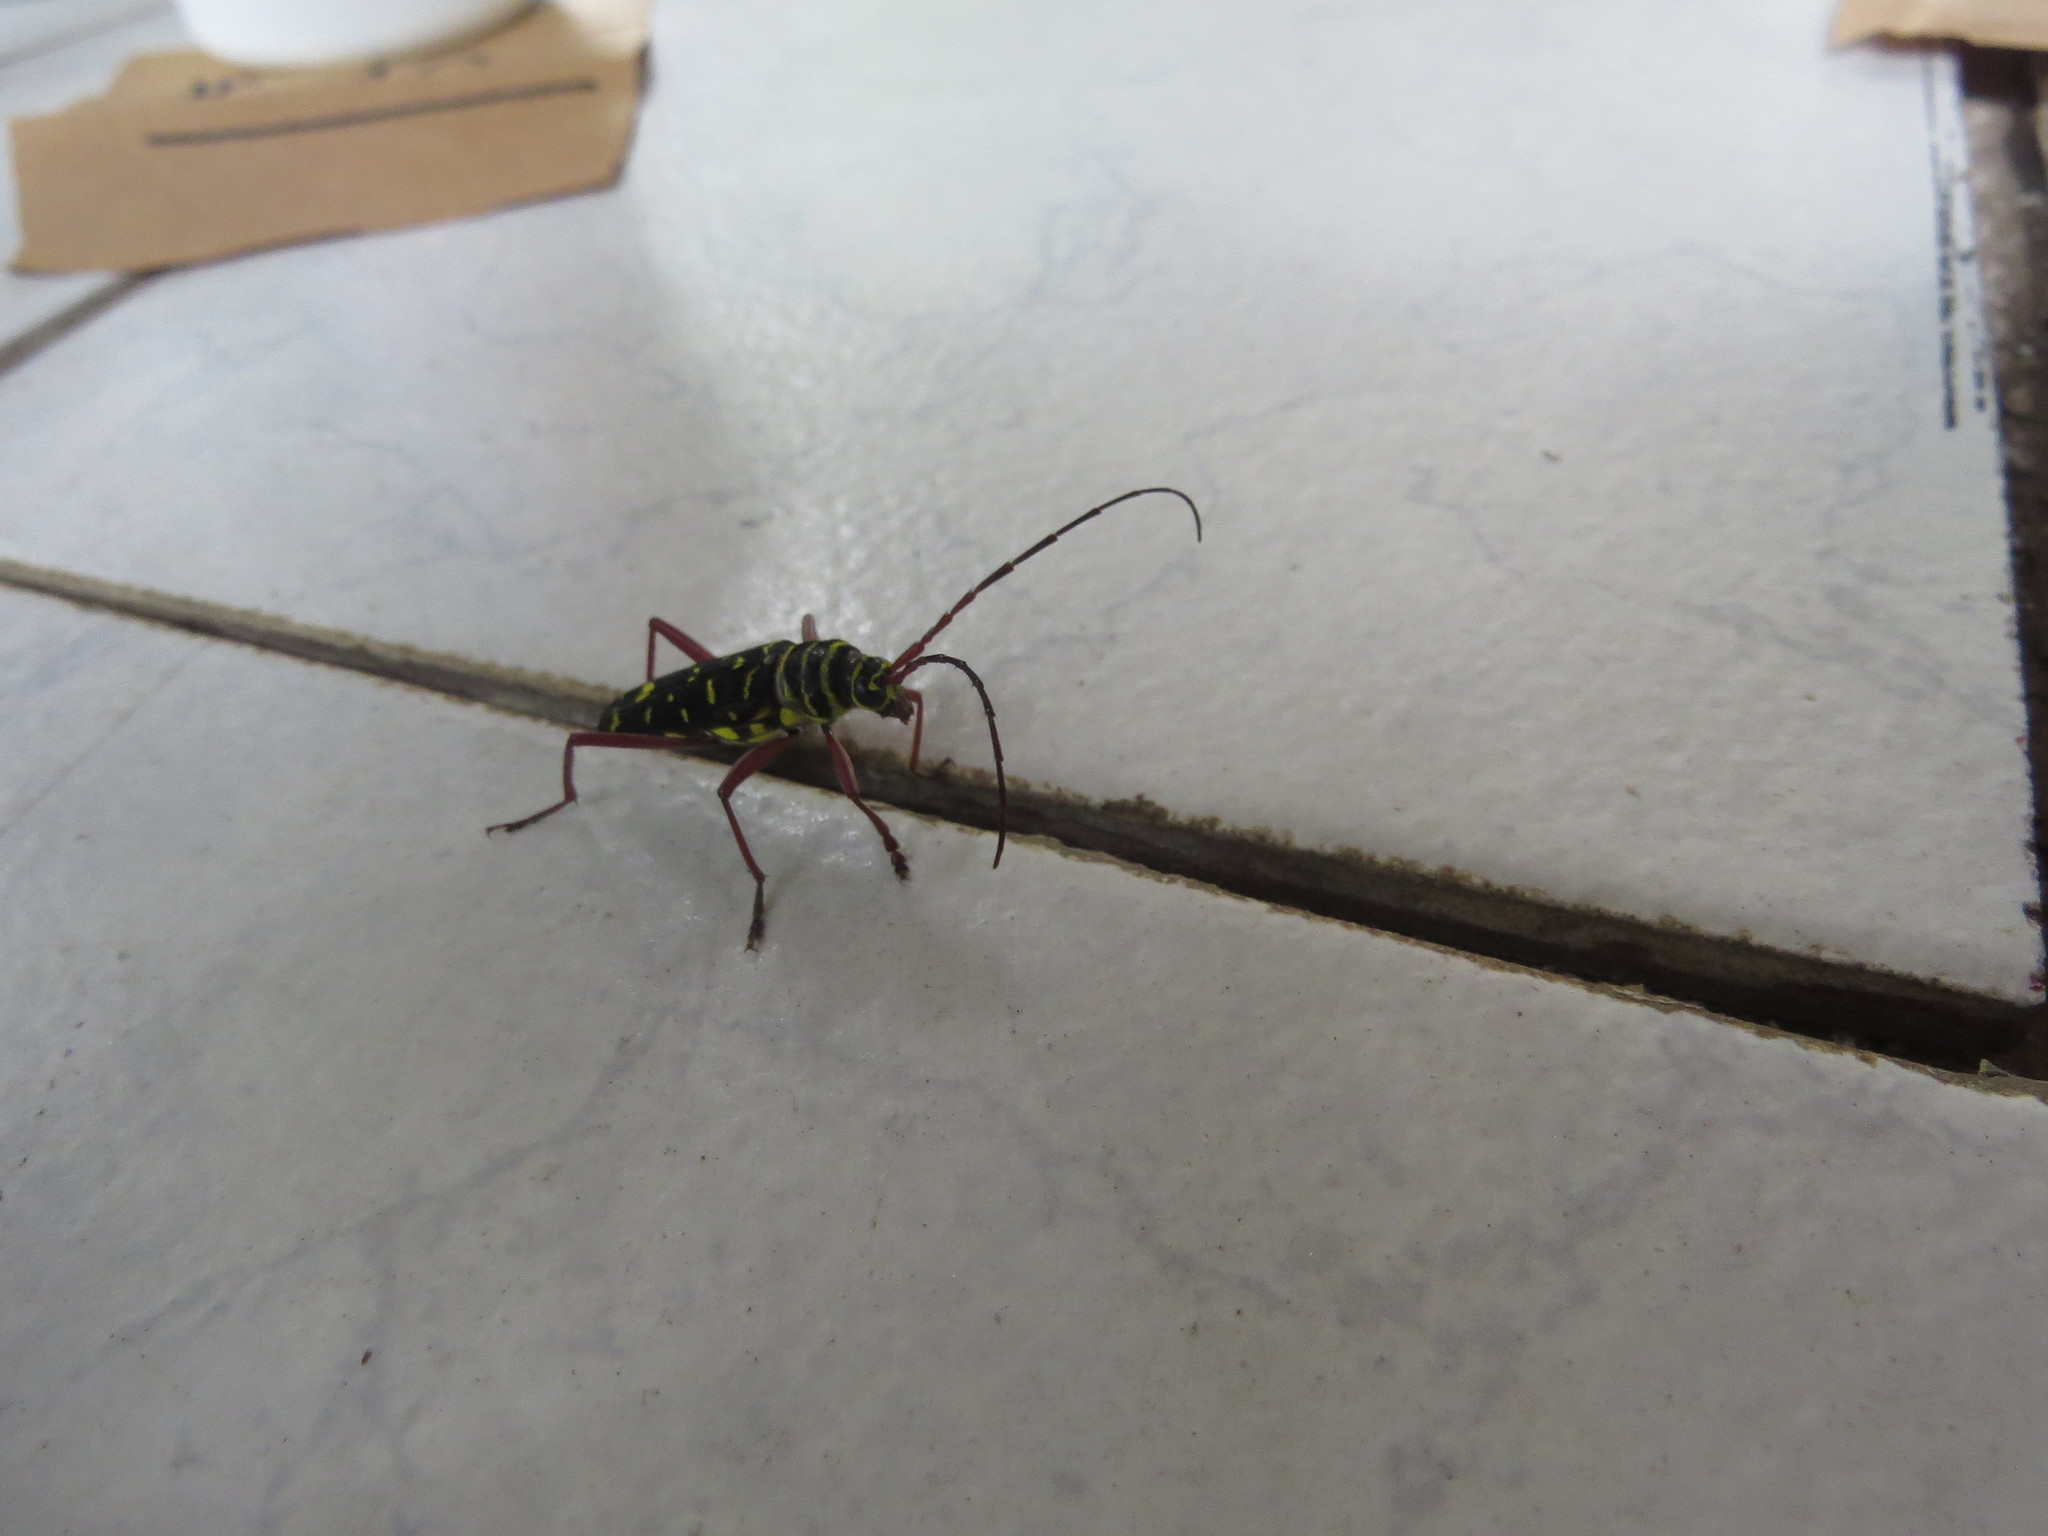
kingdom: Animalia
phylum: Arthropoda
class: Insecta
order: Coleoptera
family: Cerambycidae
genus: Megacyllene
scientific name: Megacyllene proxima
